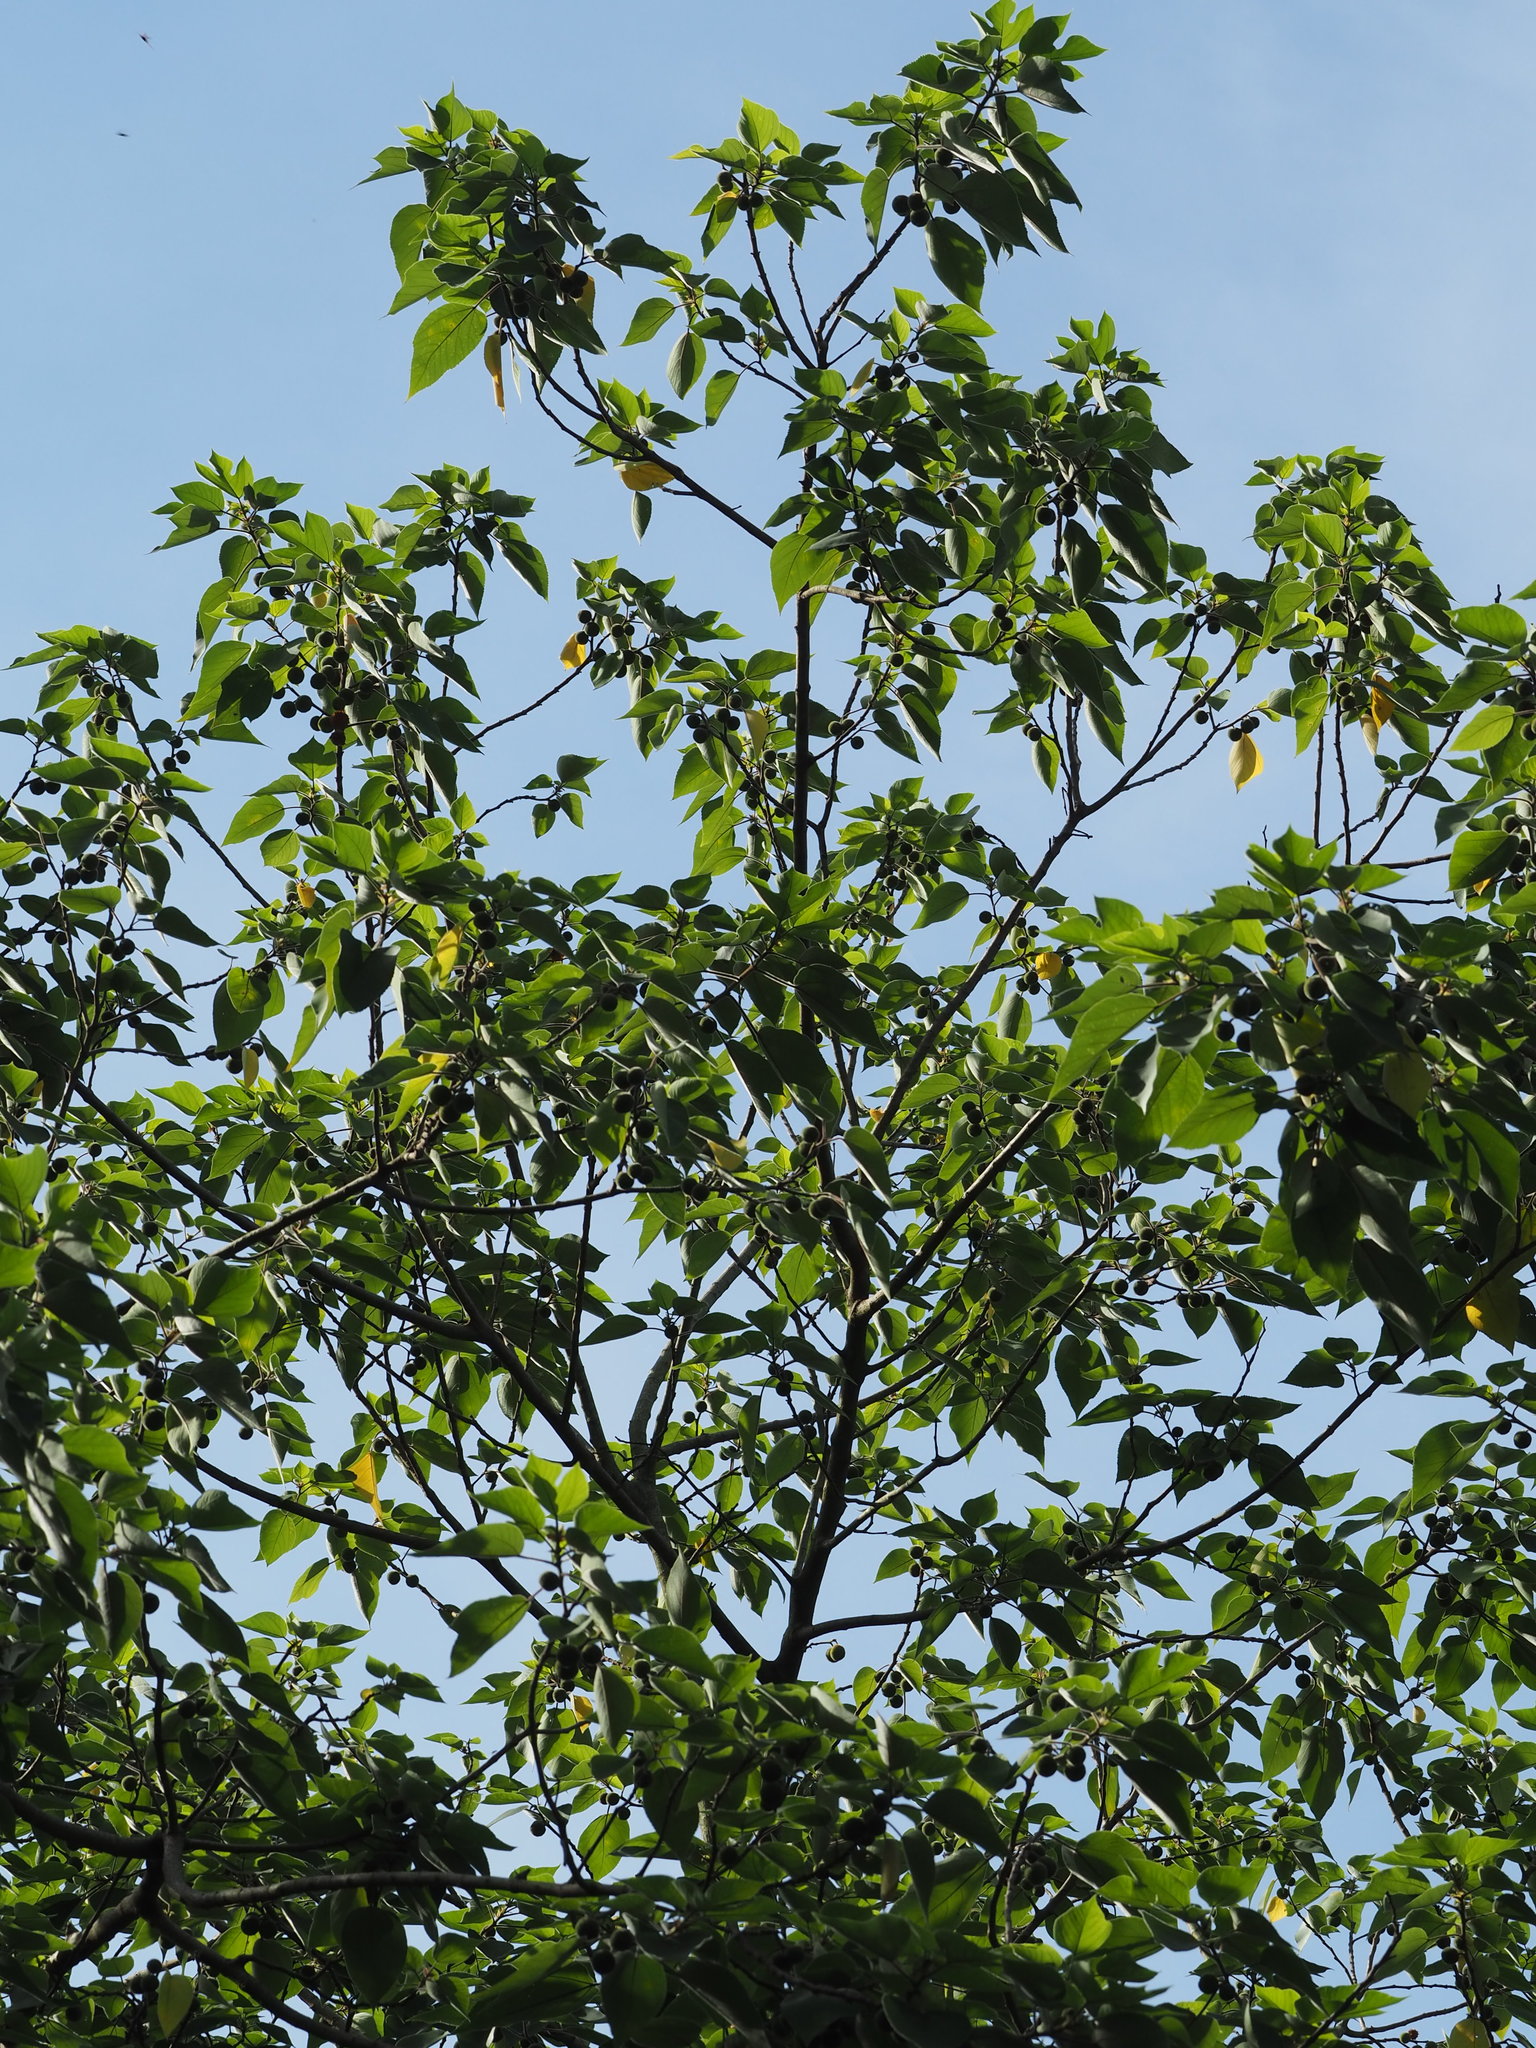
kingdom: Plantae
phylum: Tracheophyta
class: Magnoliopsida
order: Rosales
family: Moraceae
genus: Broussonetia
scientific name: Broussonetia papyrifera
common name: Paper mulberry
